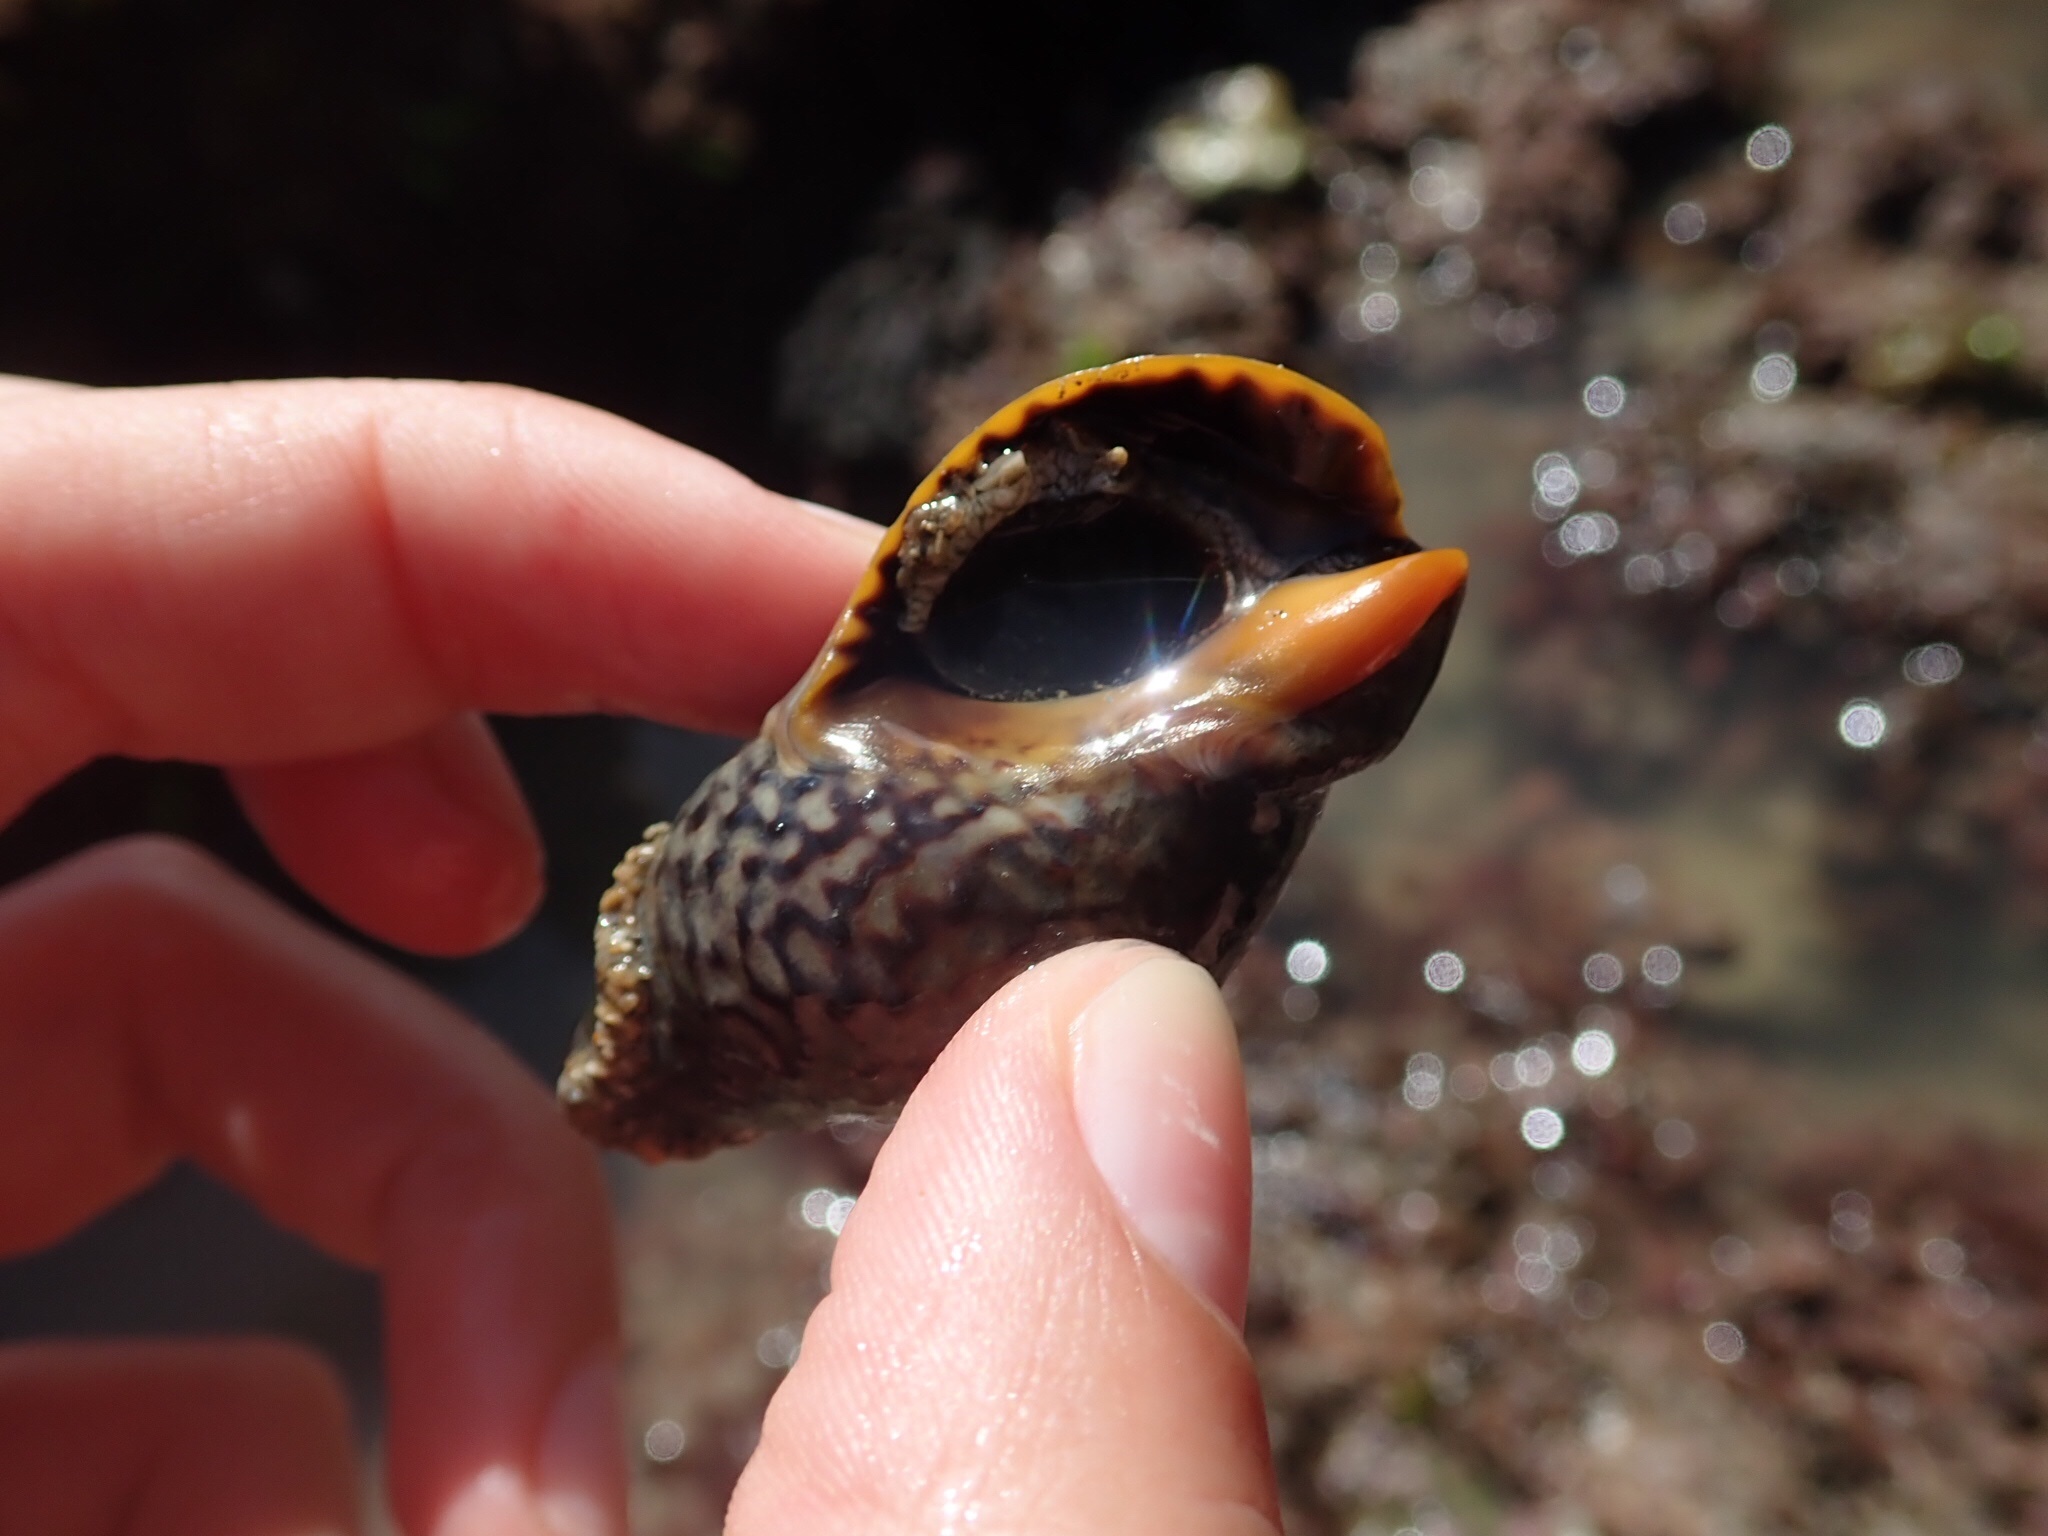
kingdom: Animalia
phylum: Mollusca
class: Gastropoda
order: Neogastropoda
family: Cominellidae
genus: Cominella
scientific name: Cominella maculosa
